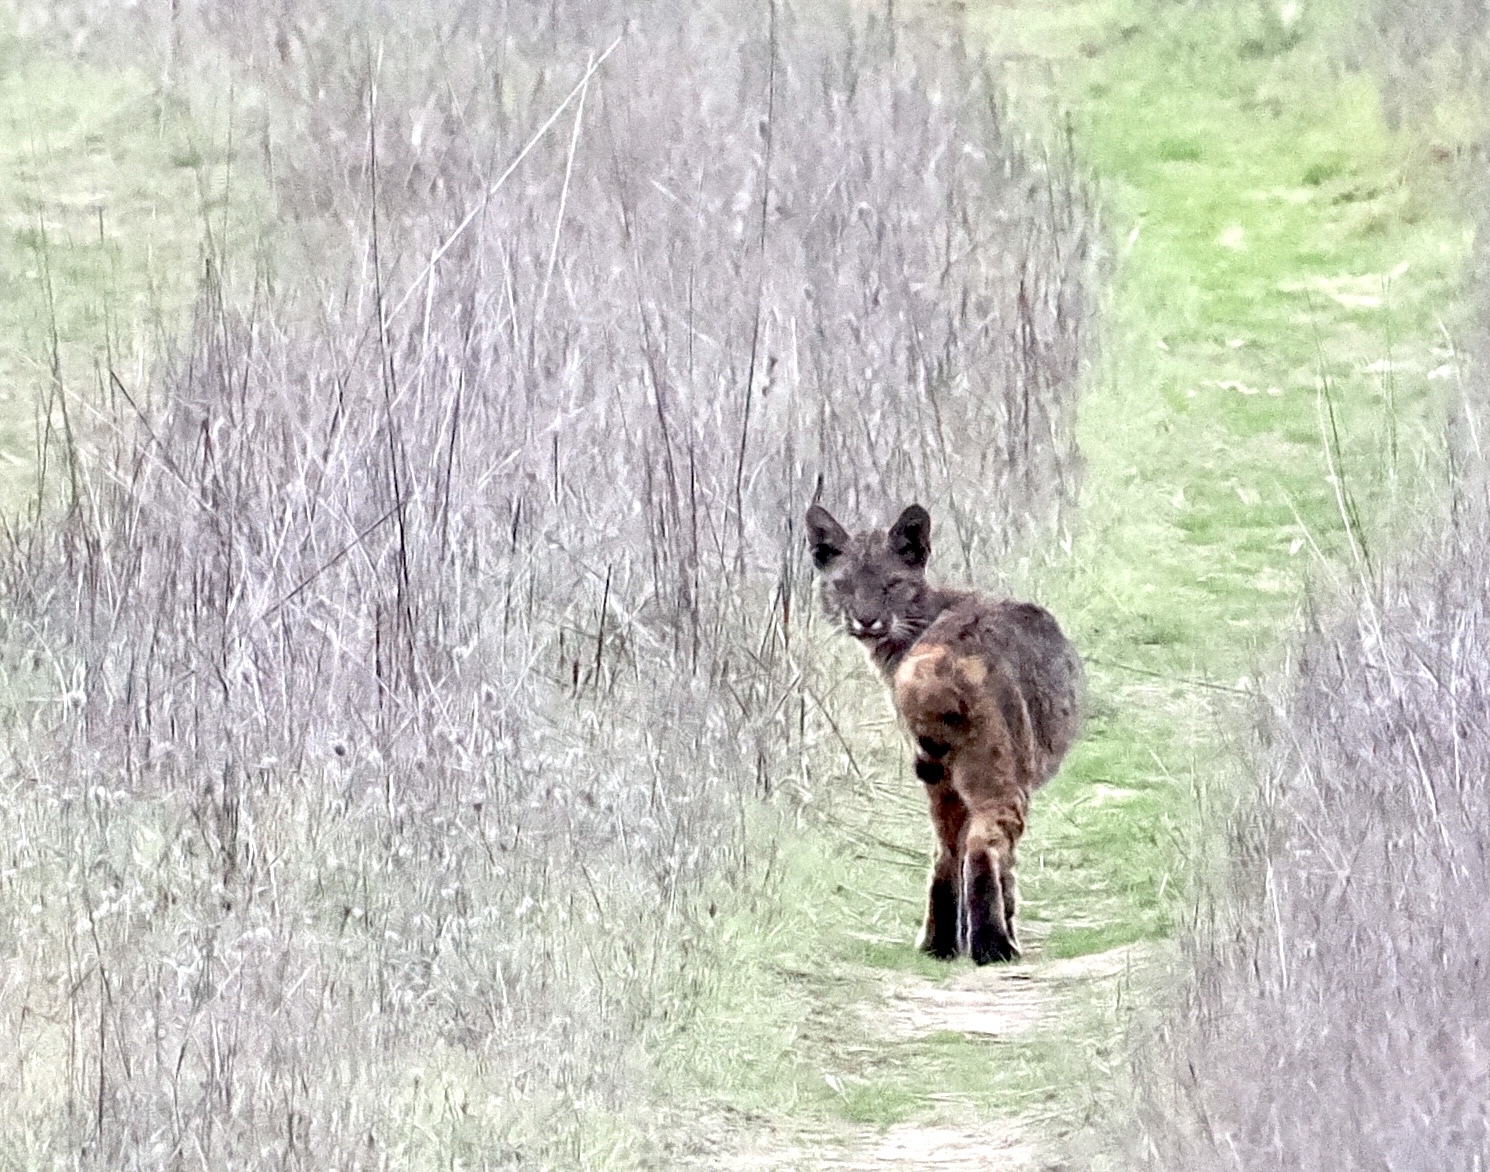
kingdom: Animalia
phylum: Chordata
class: Mammalia
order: Carnivora
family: Felidae
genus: Lynx
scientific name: Lynx rufus
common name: Bobcat
